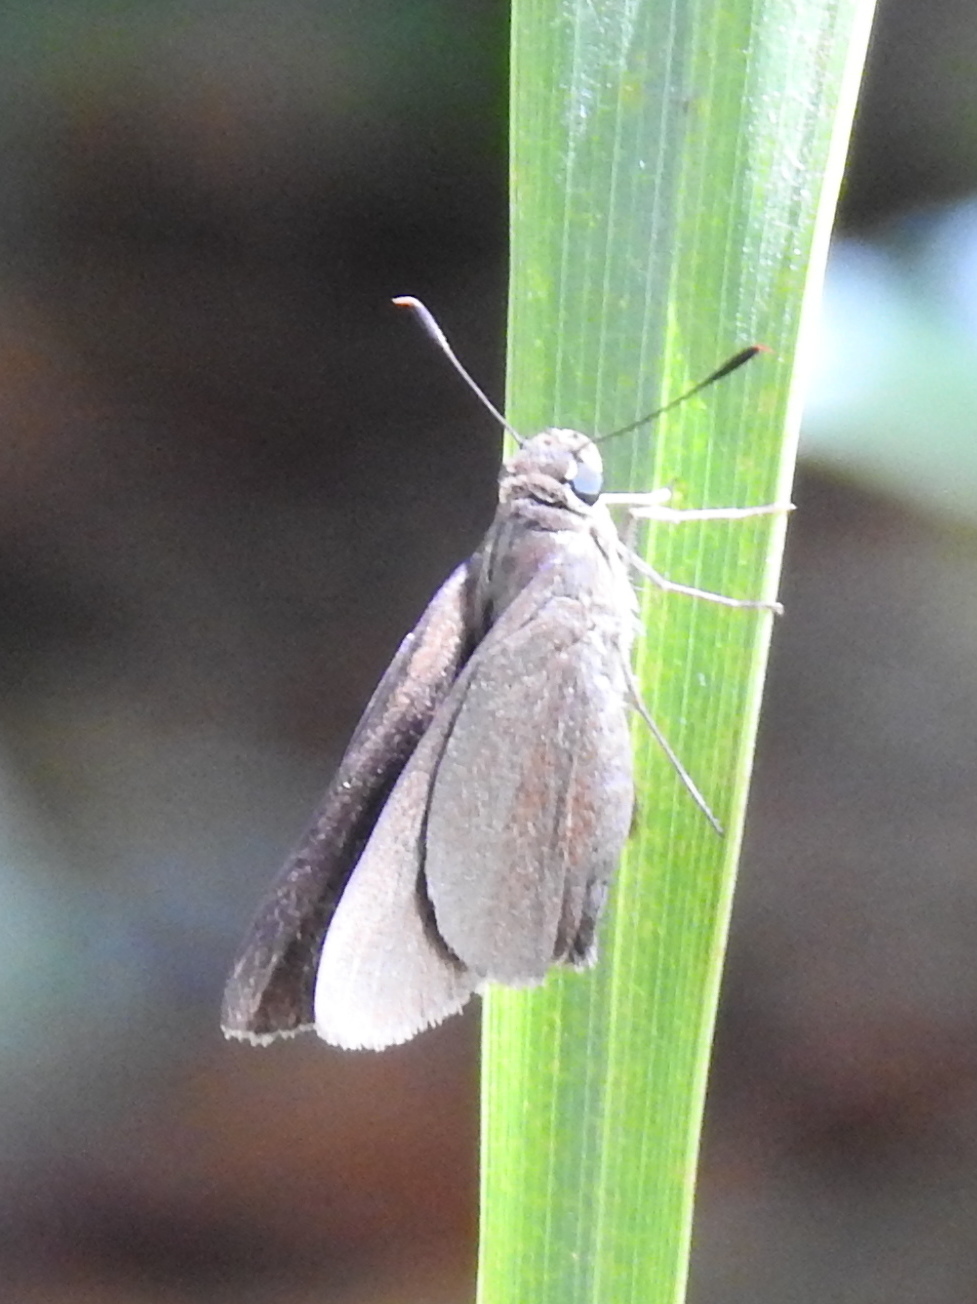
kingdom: Animalia
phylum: Arthropoda
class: Insecta
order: Lepidoptera
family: Hesperiidae
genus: Asbolis
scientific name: Asbolis capucinus
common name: Monk skipper
